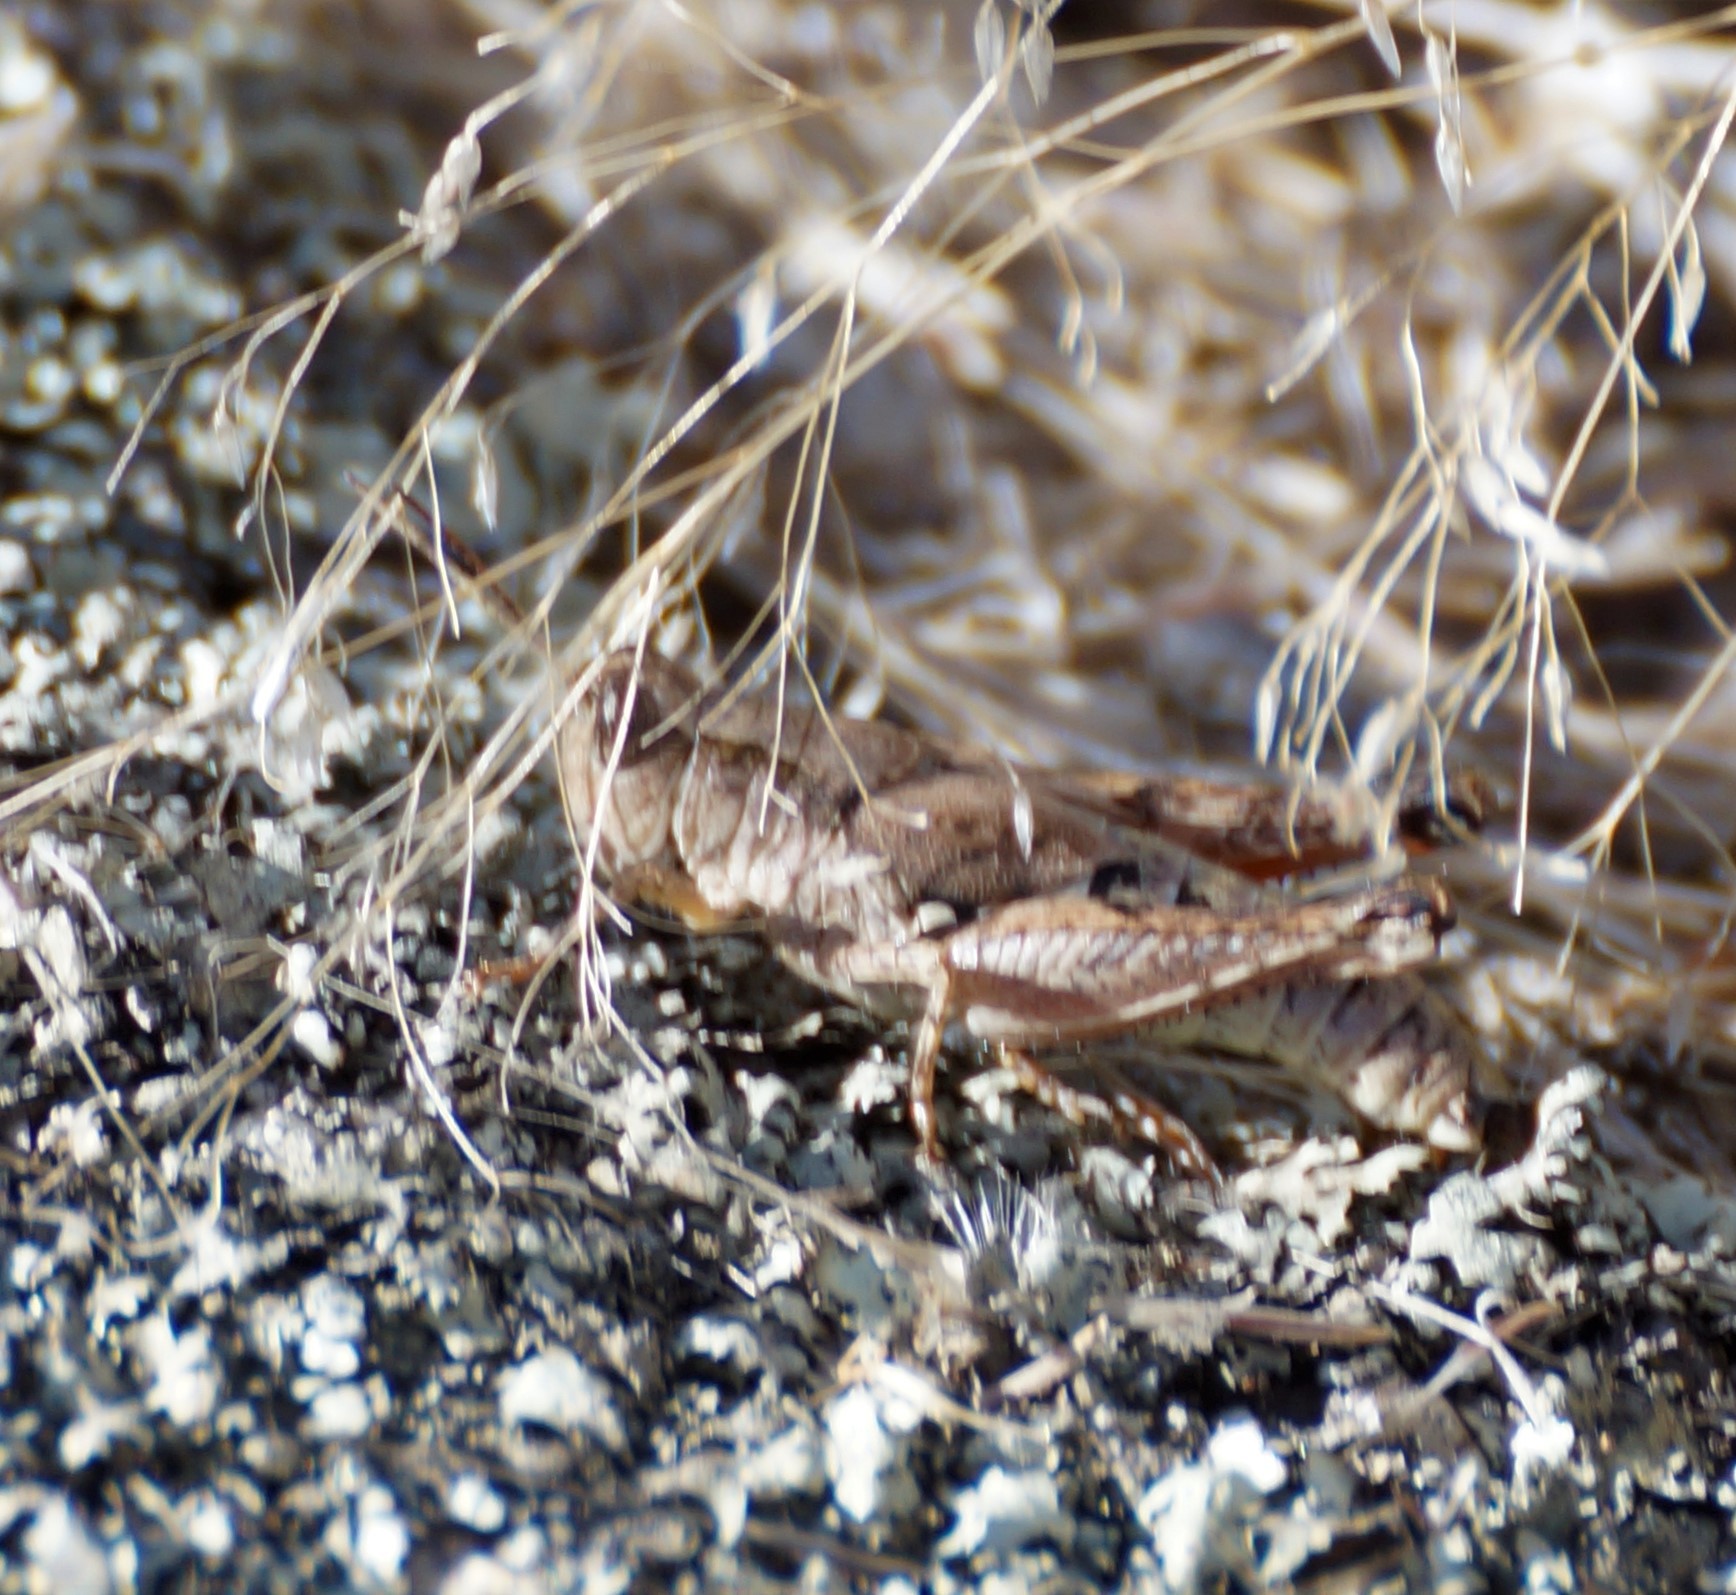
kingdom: Animalia
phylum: Arthropoda
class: Insecta
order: Orthoptera
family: Acrididae
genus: Phaulacridium
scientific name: Phaulacridium vittatum
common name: Wingless grasshopper
